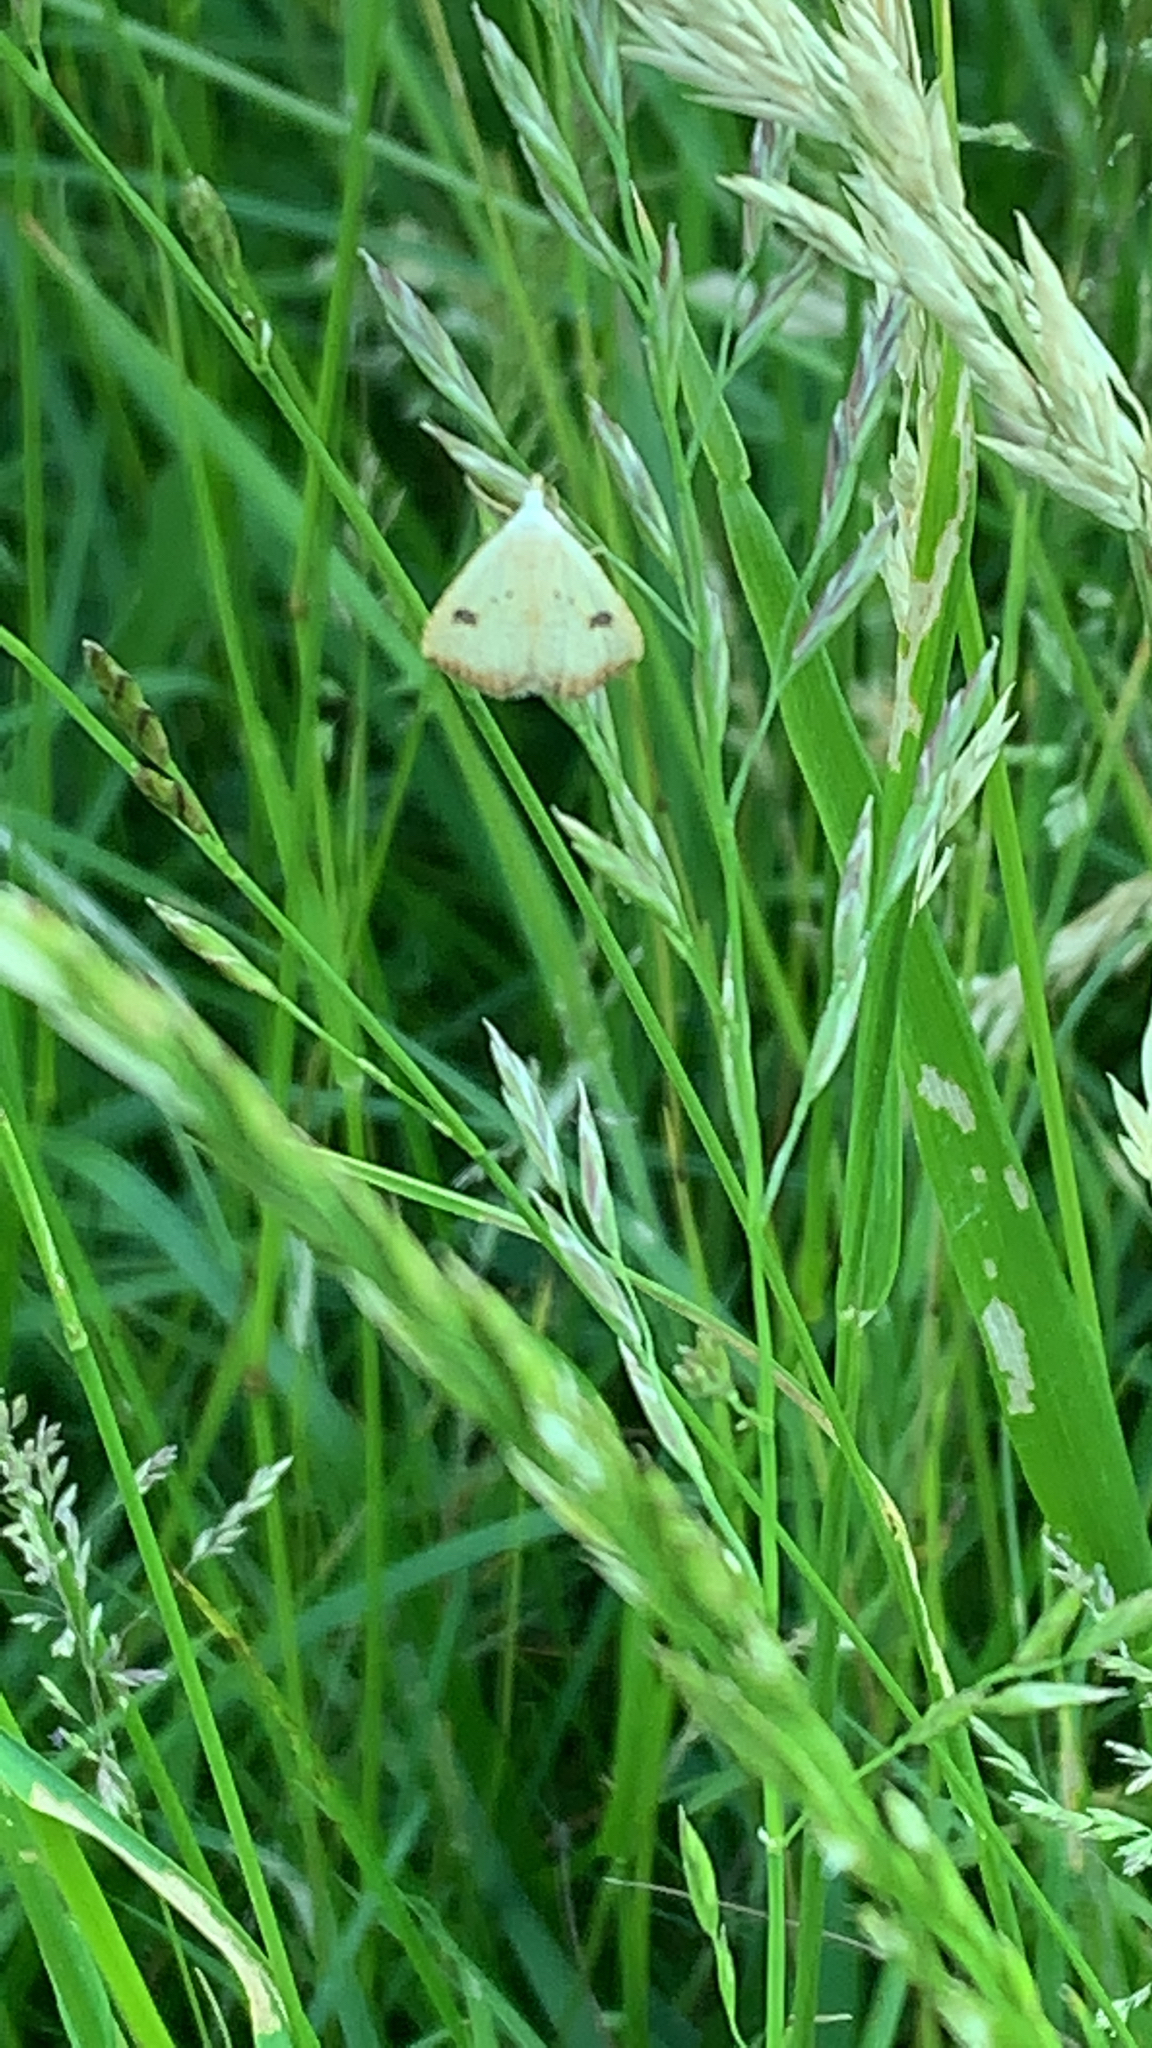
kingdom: Animalia
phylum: Arthropoda
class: Insecta
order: Lepidoptera
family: Erebidae
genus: Rivula
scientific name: Rivula sericealis
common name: Straw dot
